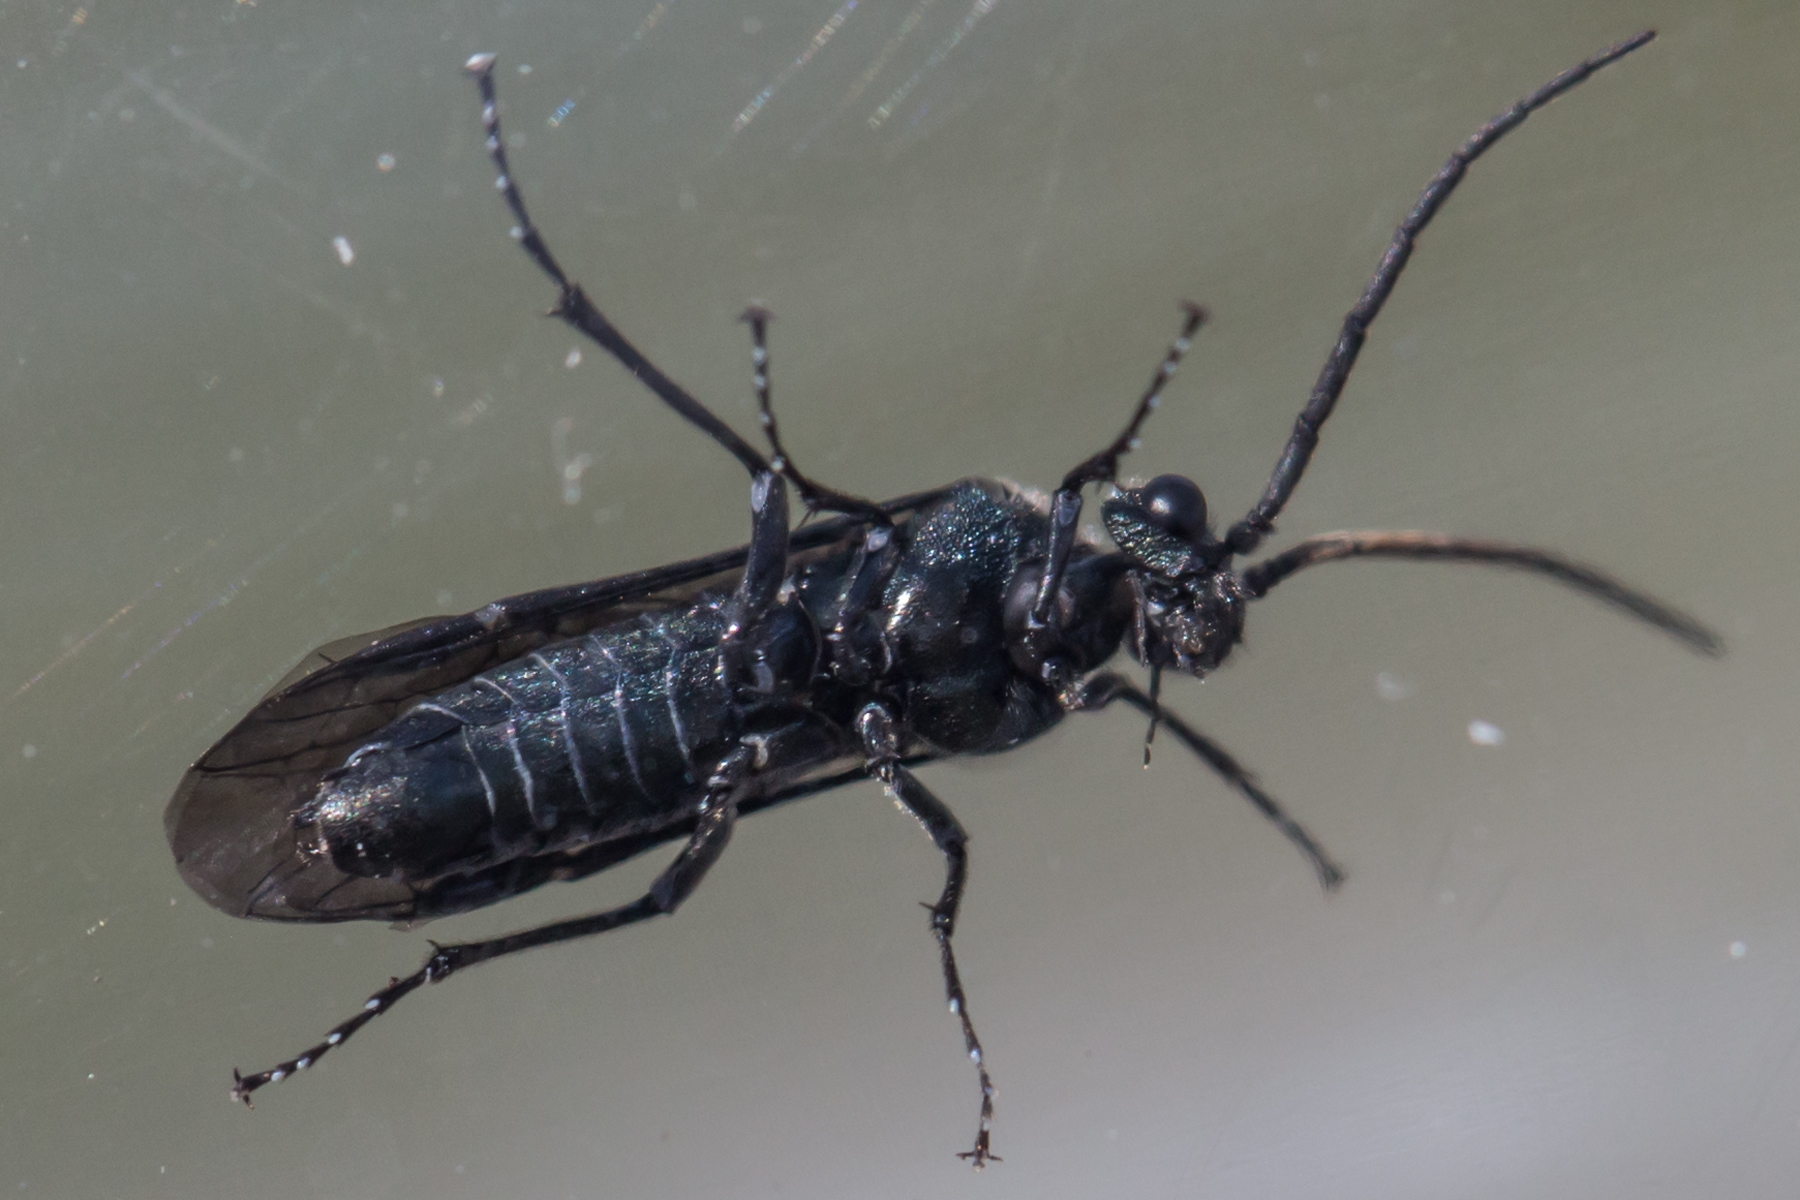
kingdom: Animalia
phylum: Arthropoda
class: Insecta
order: Hymenoptera
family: Tenthredinidae
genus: Dolerus
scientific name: Dolerus unicolor
